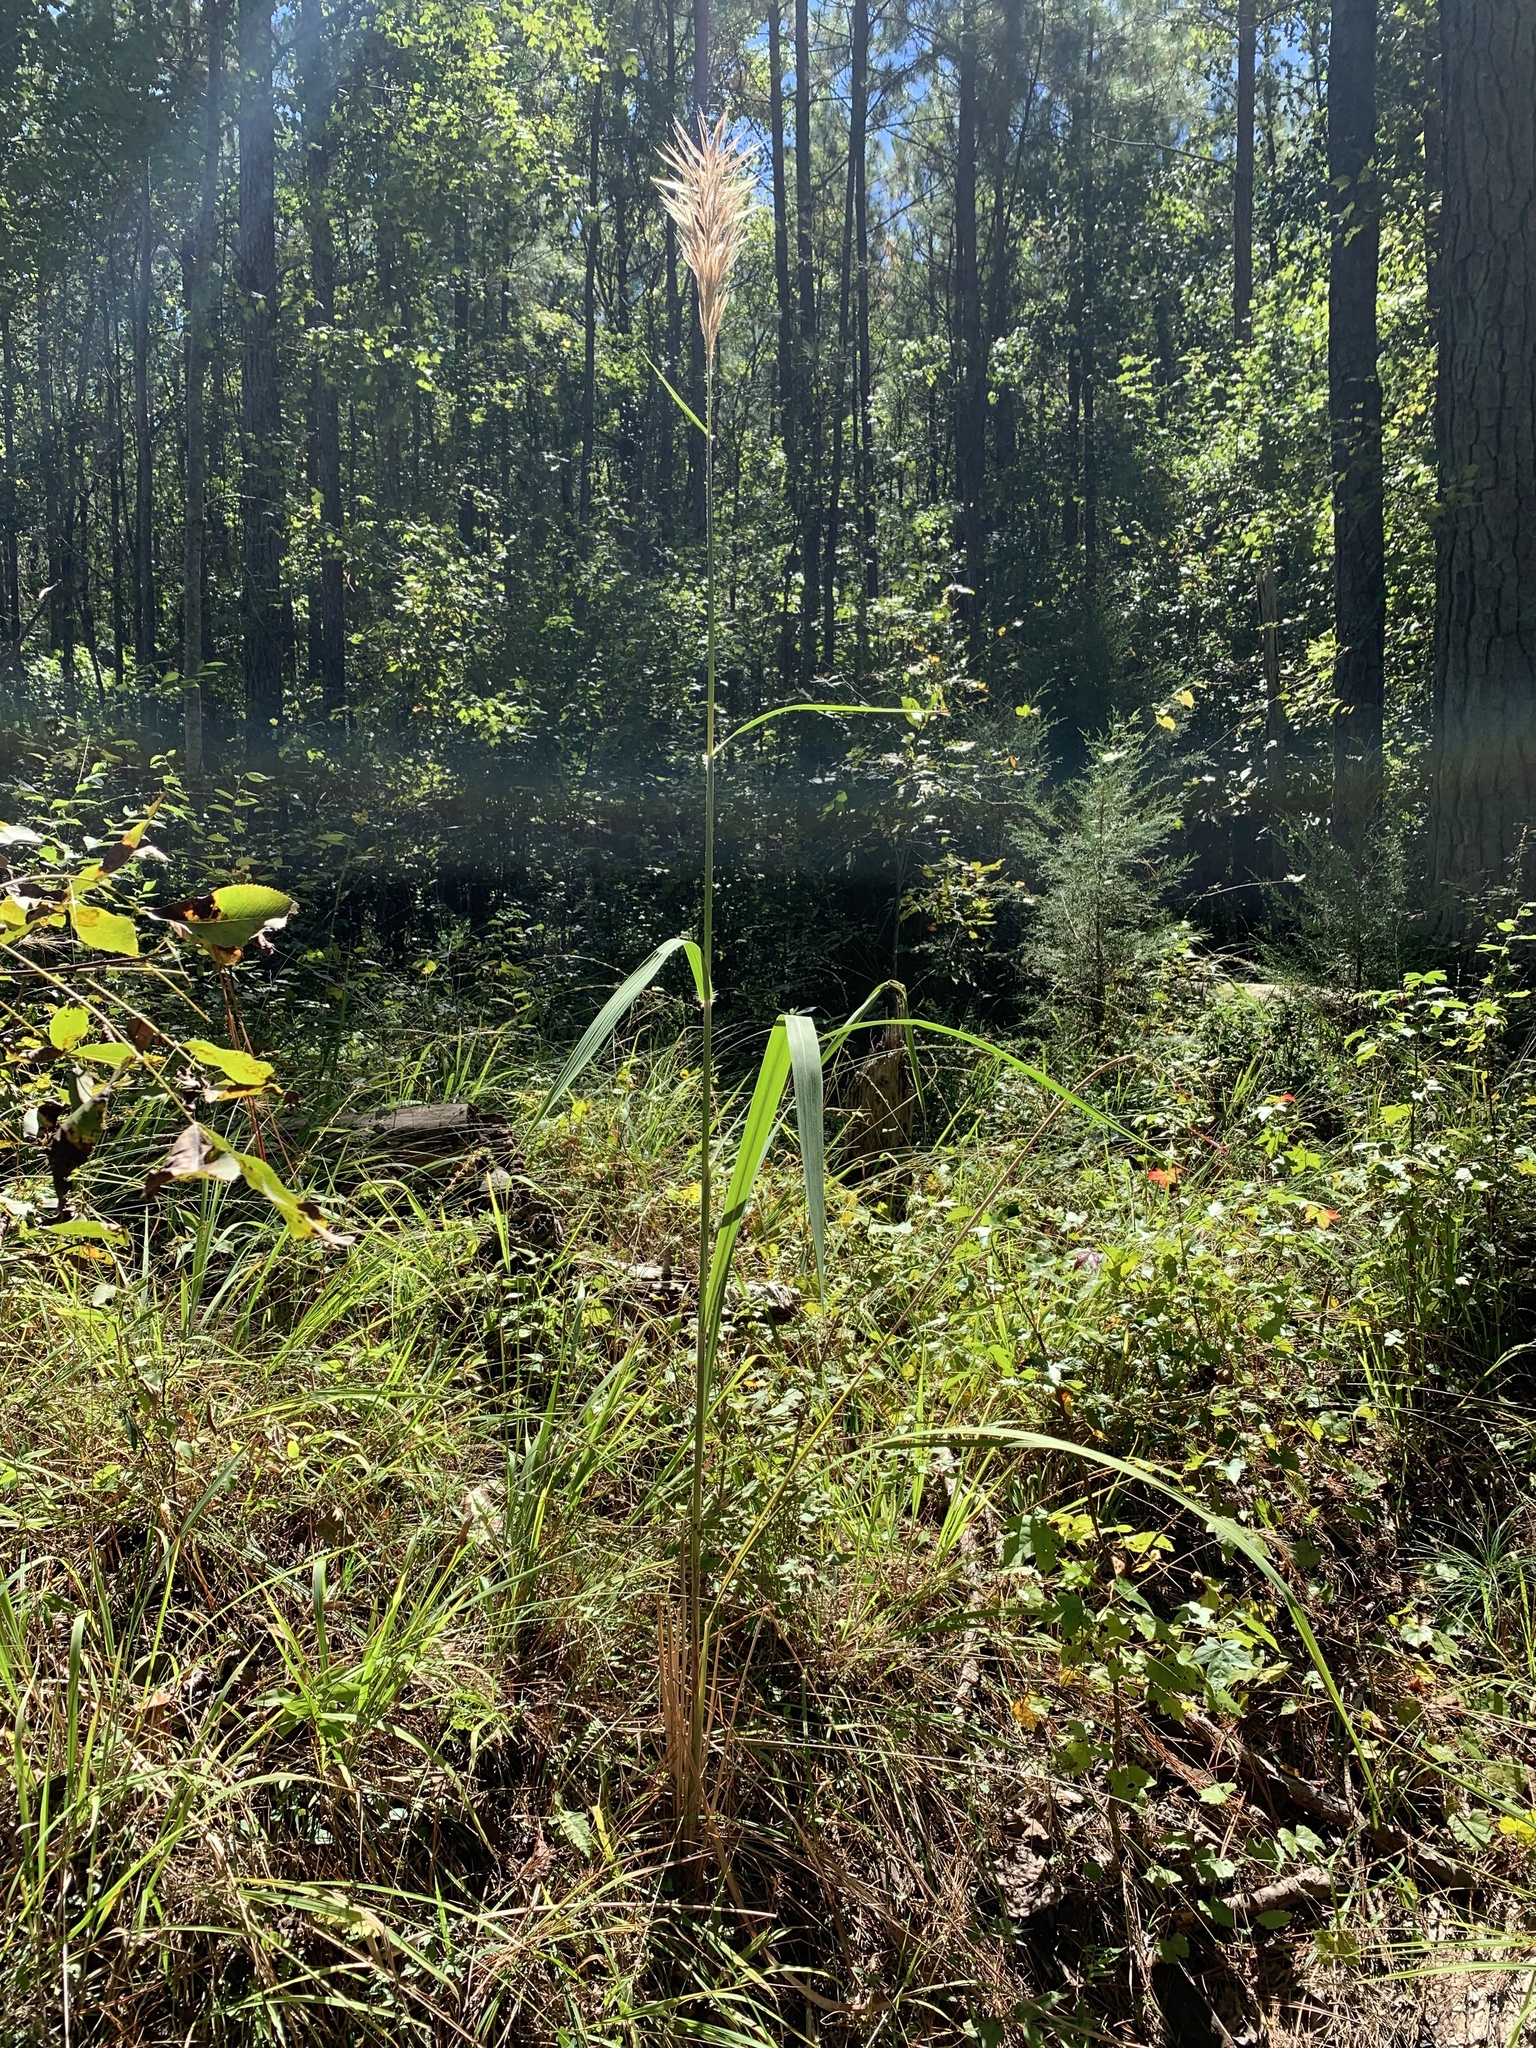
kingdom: Plantae
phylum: Tracheophyta
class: Liliopsida
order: Poales
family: Poaceae
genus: Erianthus
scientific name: Erianthus giganteus
